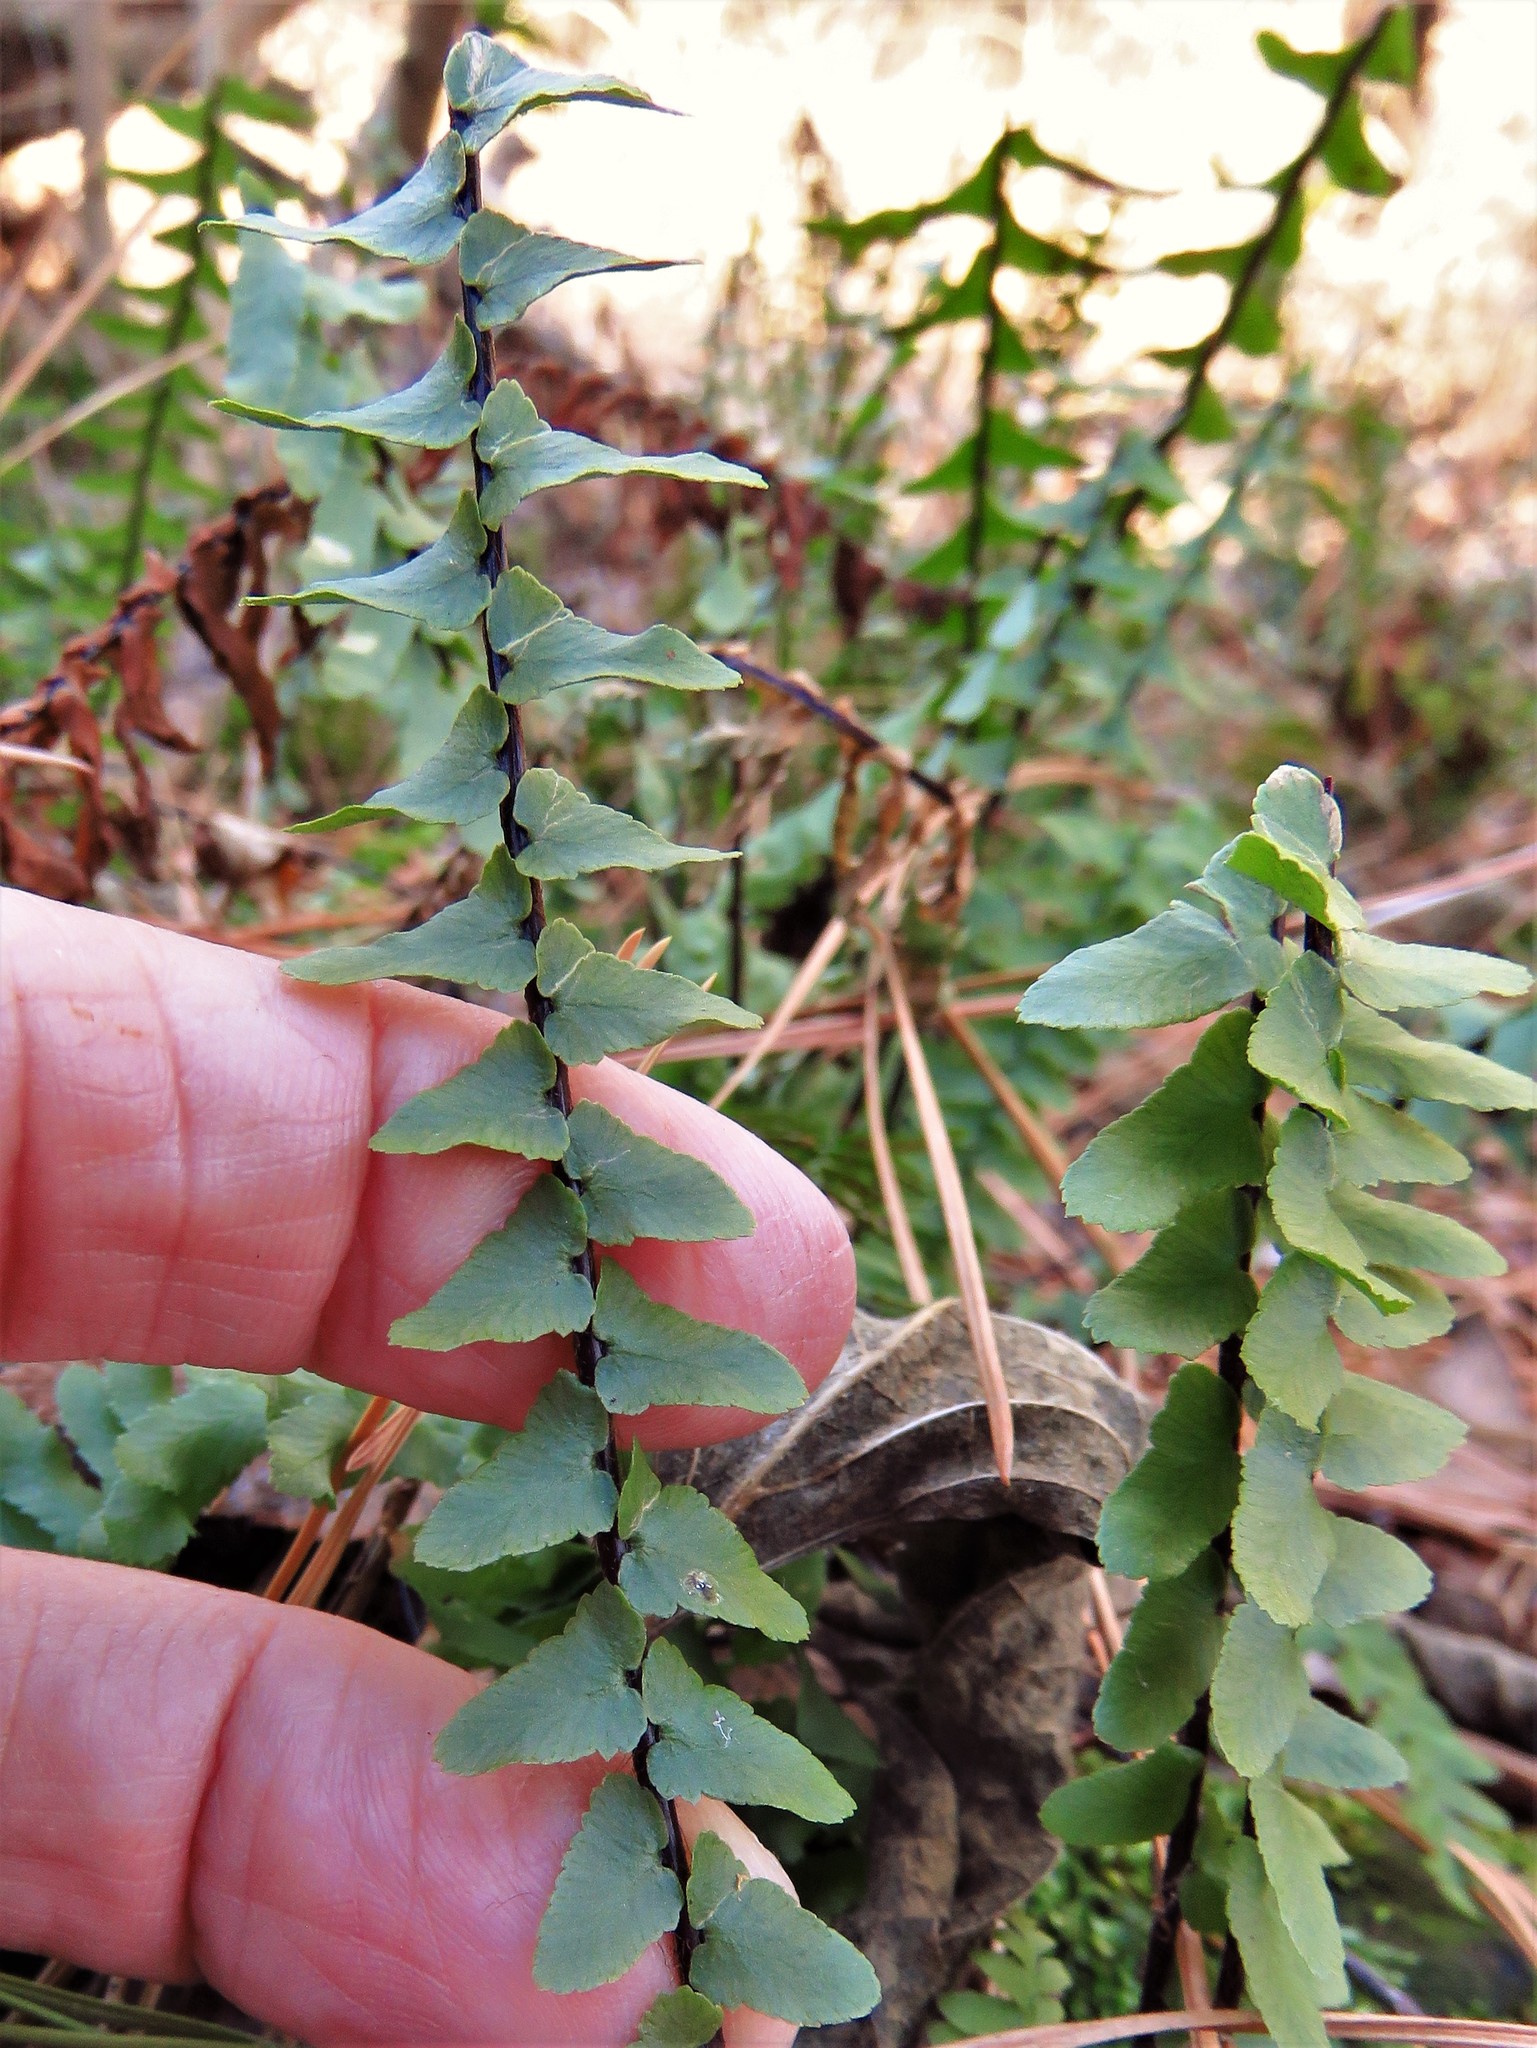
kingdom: Plantae
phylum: Tracheophyta
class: Polypodiopsida
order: Polypodiales
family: Aspleniaceae
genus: Asplenium
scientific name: Asplenium platyneuron
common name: Ebony spleenwort
